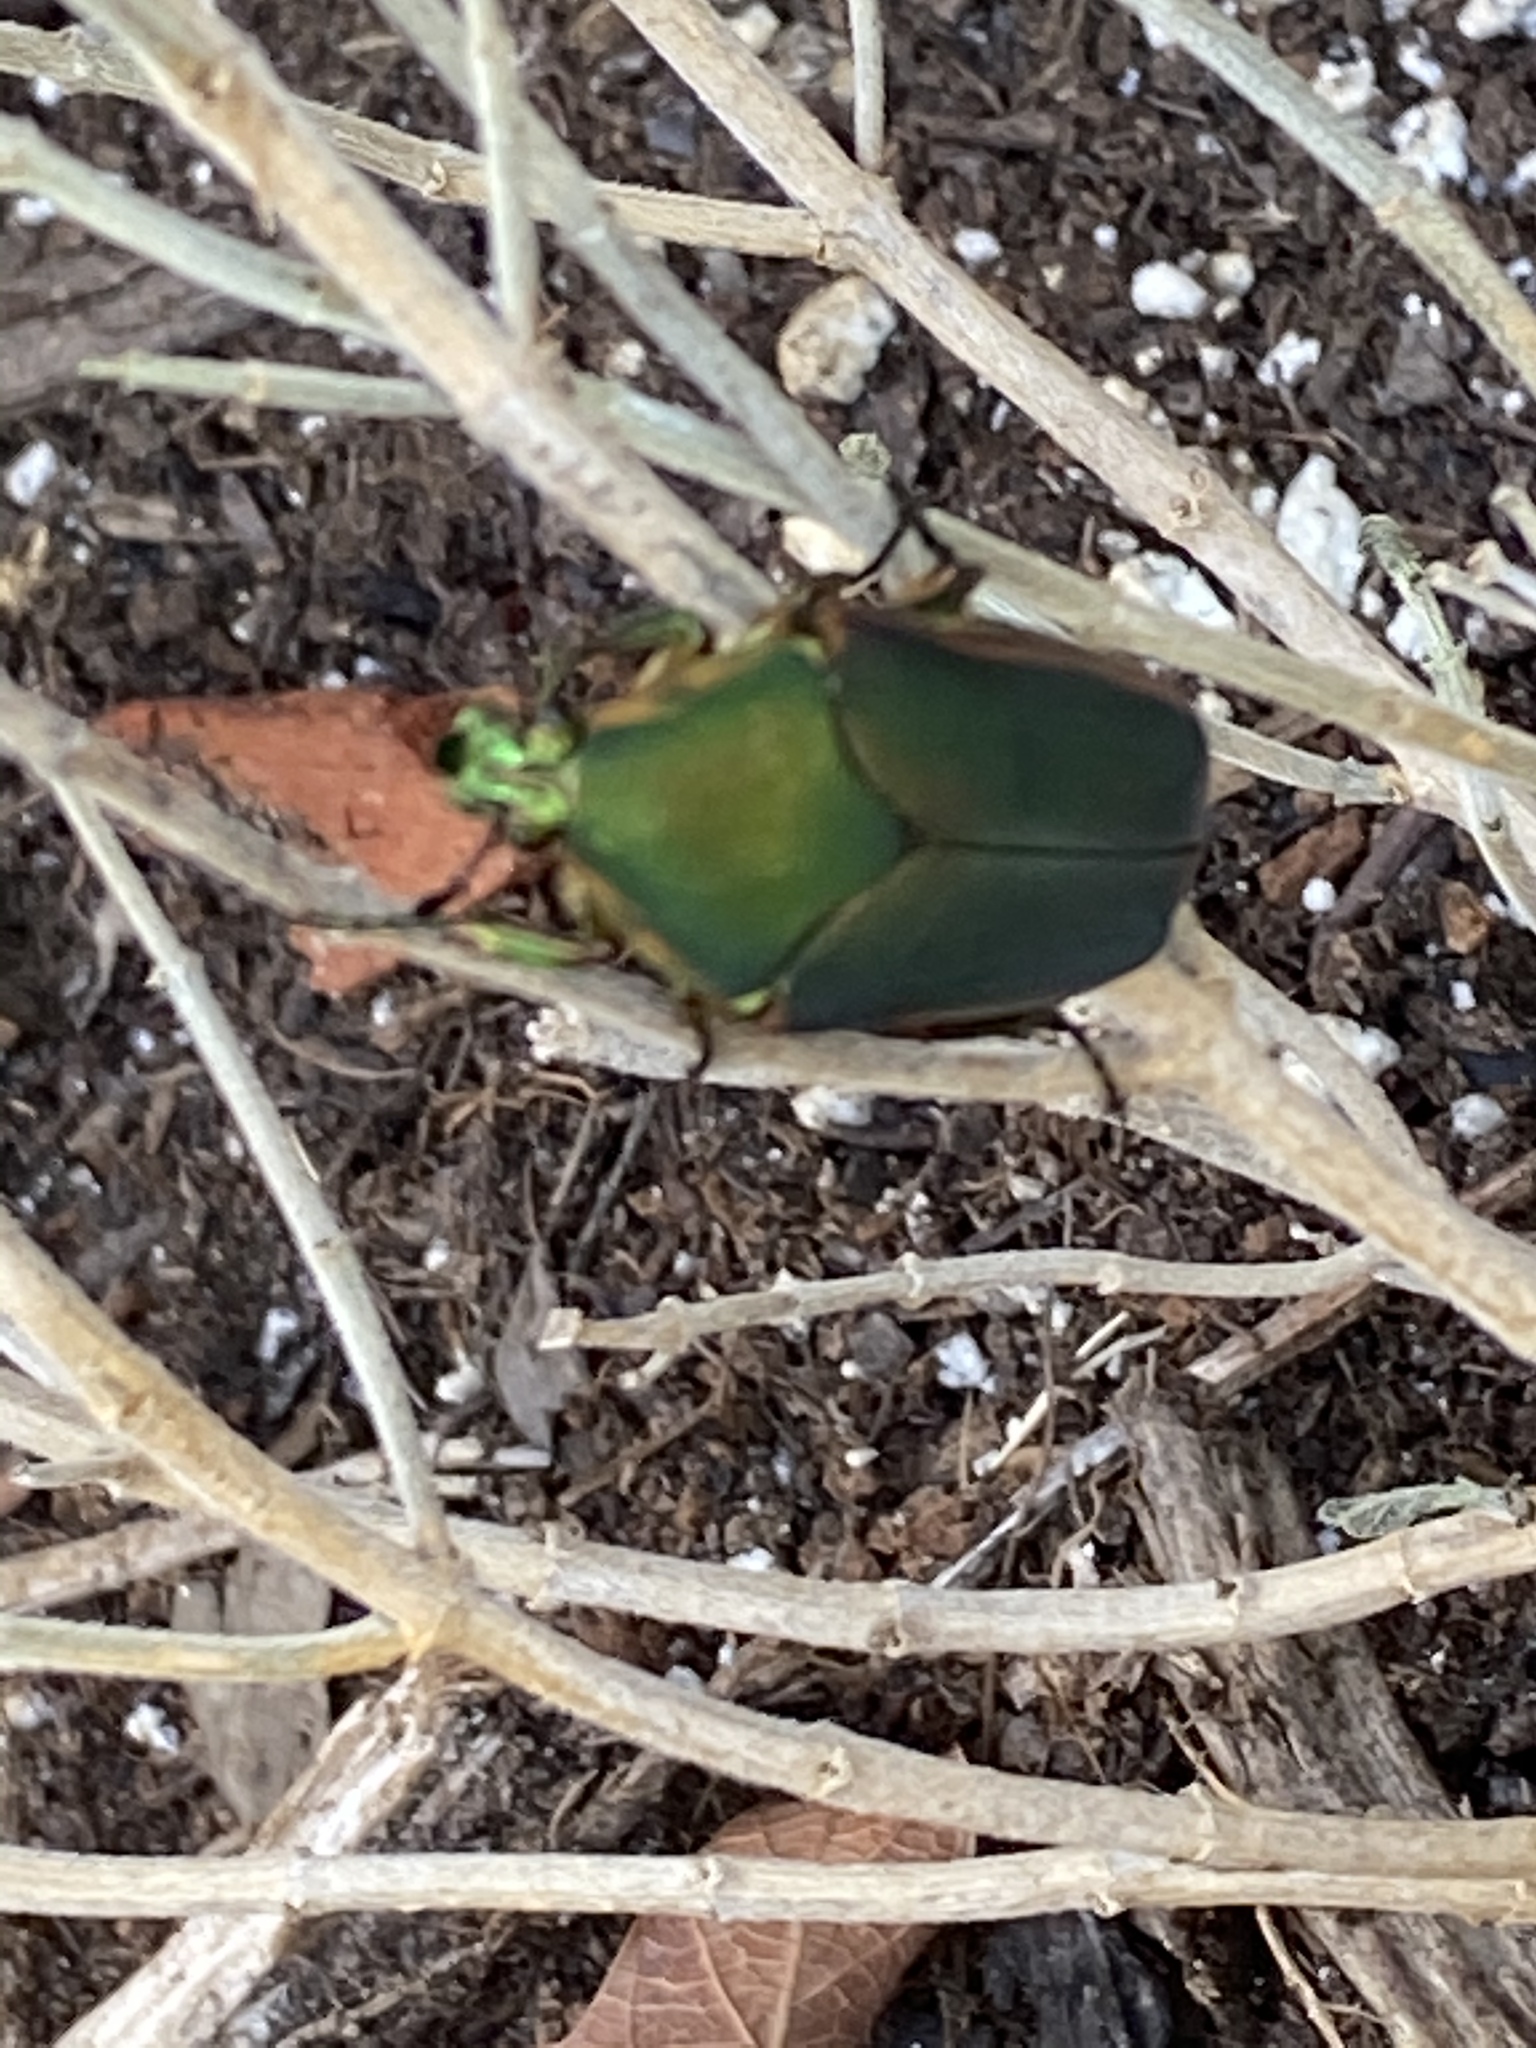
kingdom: Animalia
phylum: Arthropoda
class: Insecta
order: Coleoptera
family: Scarabaeidae
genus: Cotinis
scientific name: Cotinis nitida
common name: Common green june beetle
